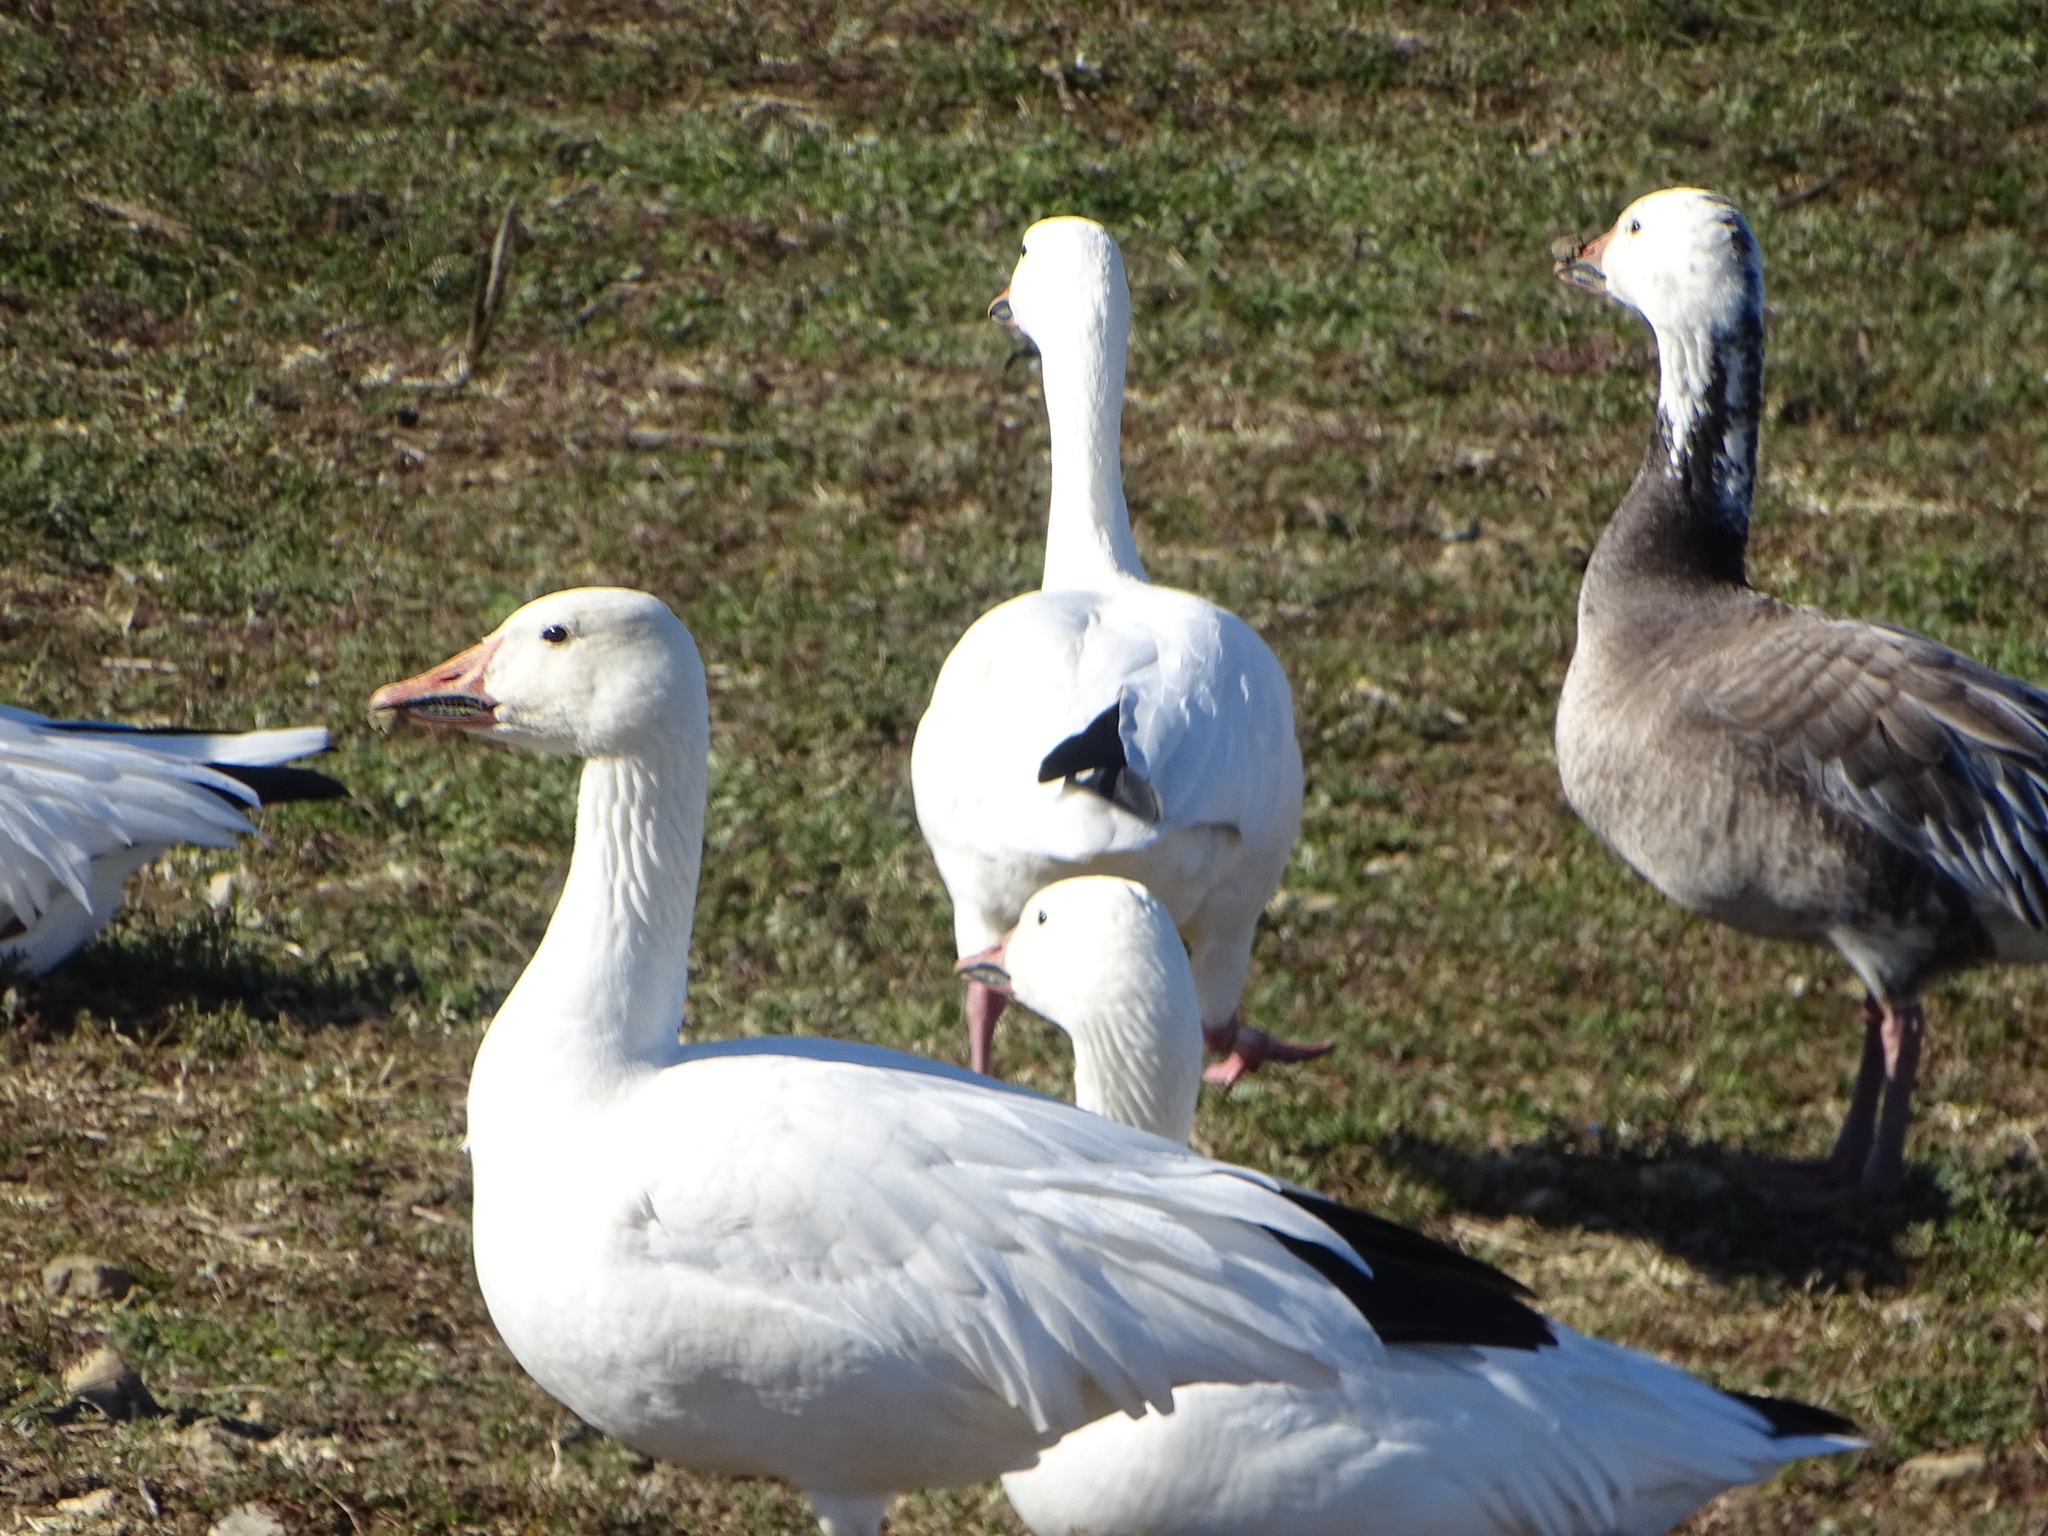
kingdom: Animalia
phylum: Chordata
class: Aves
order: Anseriformes
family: Anatidae
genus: Anser
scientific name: Anser caerulescens
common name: Snow goose
